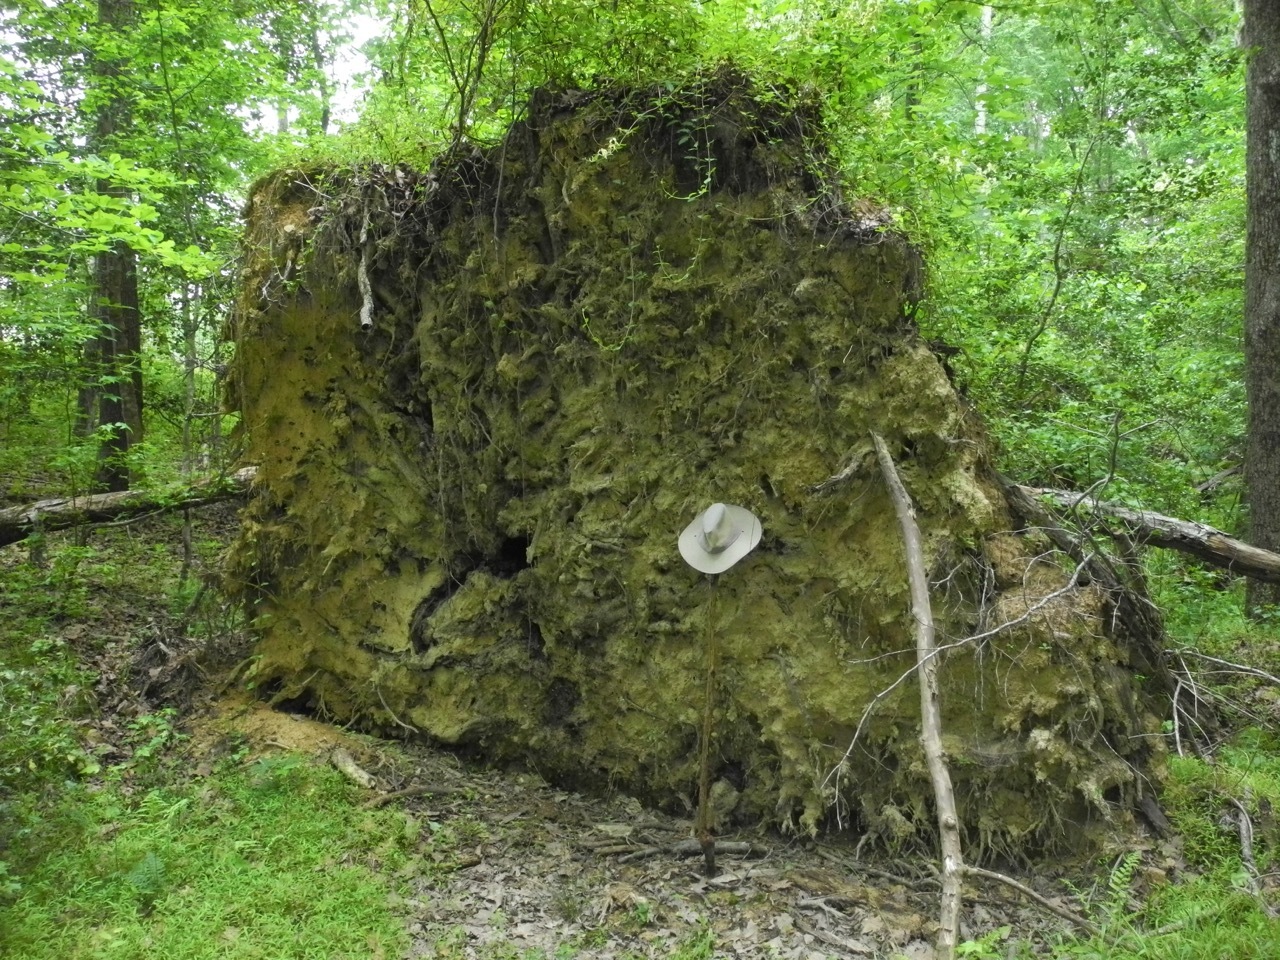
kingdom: Plantae
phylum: Tracheophyta
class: Magnoliopsida
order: Sapindales
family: Anacardiaceae
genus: Rhus
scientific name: Rhus glabra
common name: Scarlet sumac
